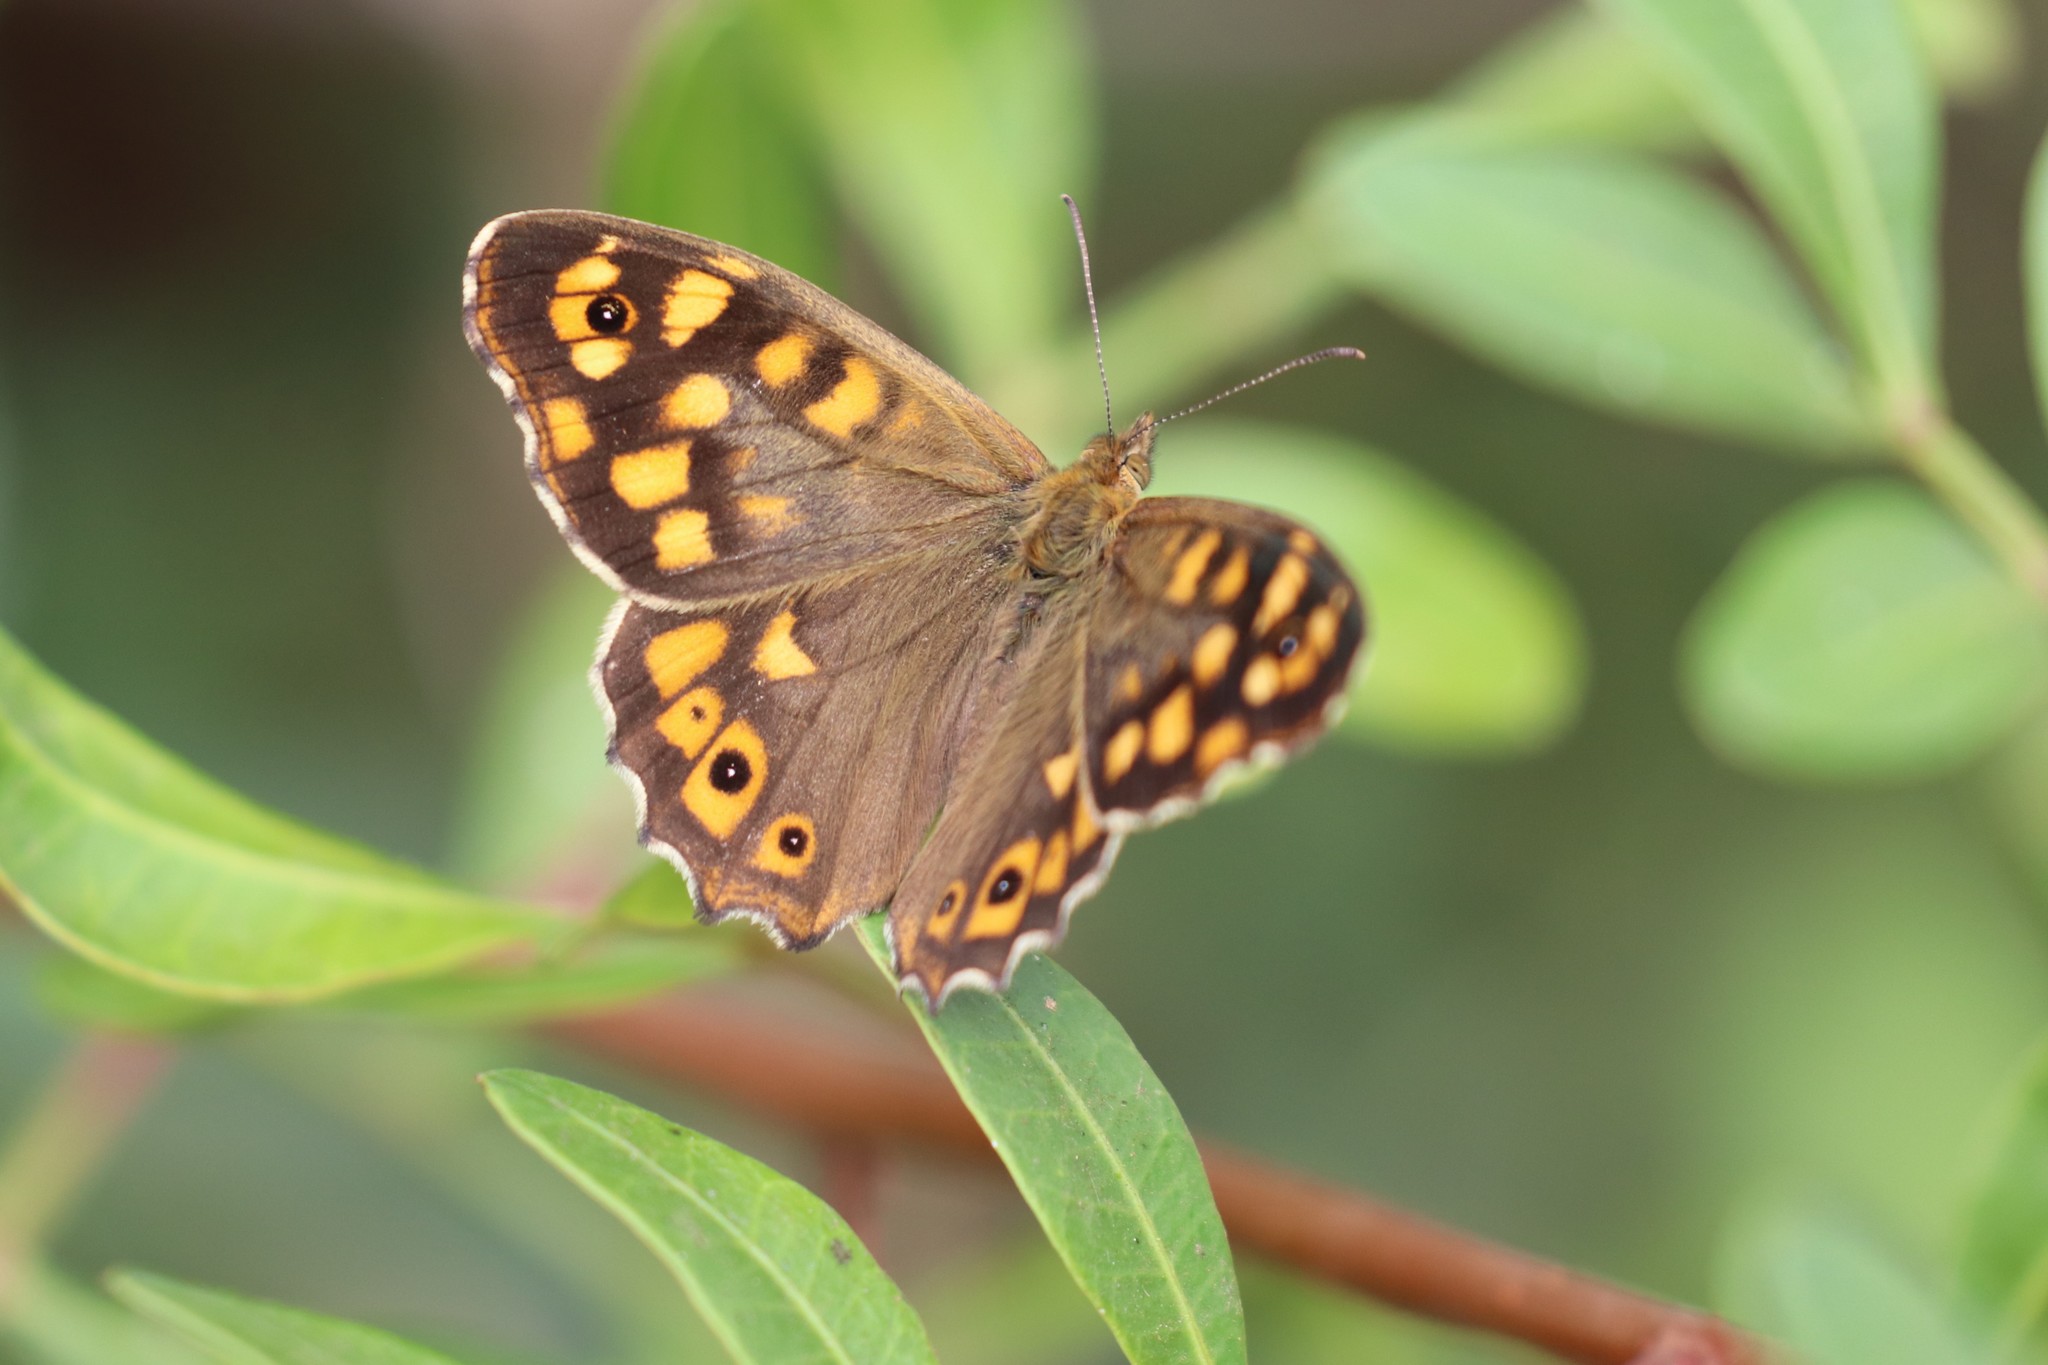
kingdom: Animalia
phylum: Arthropoda
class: Insecta
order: Lepidoptera
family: Nymphalidae
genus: Pararge
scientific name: Pararge aegeria
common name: Speckled wood
